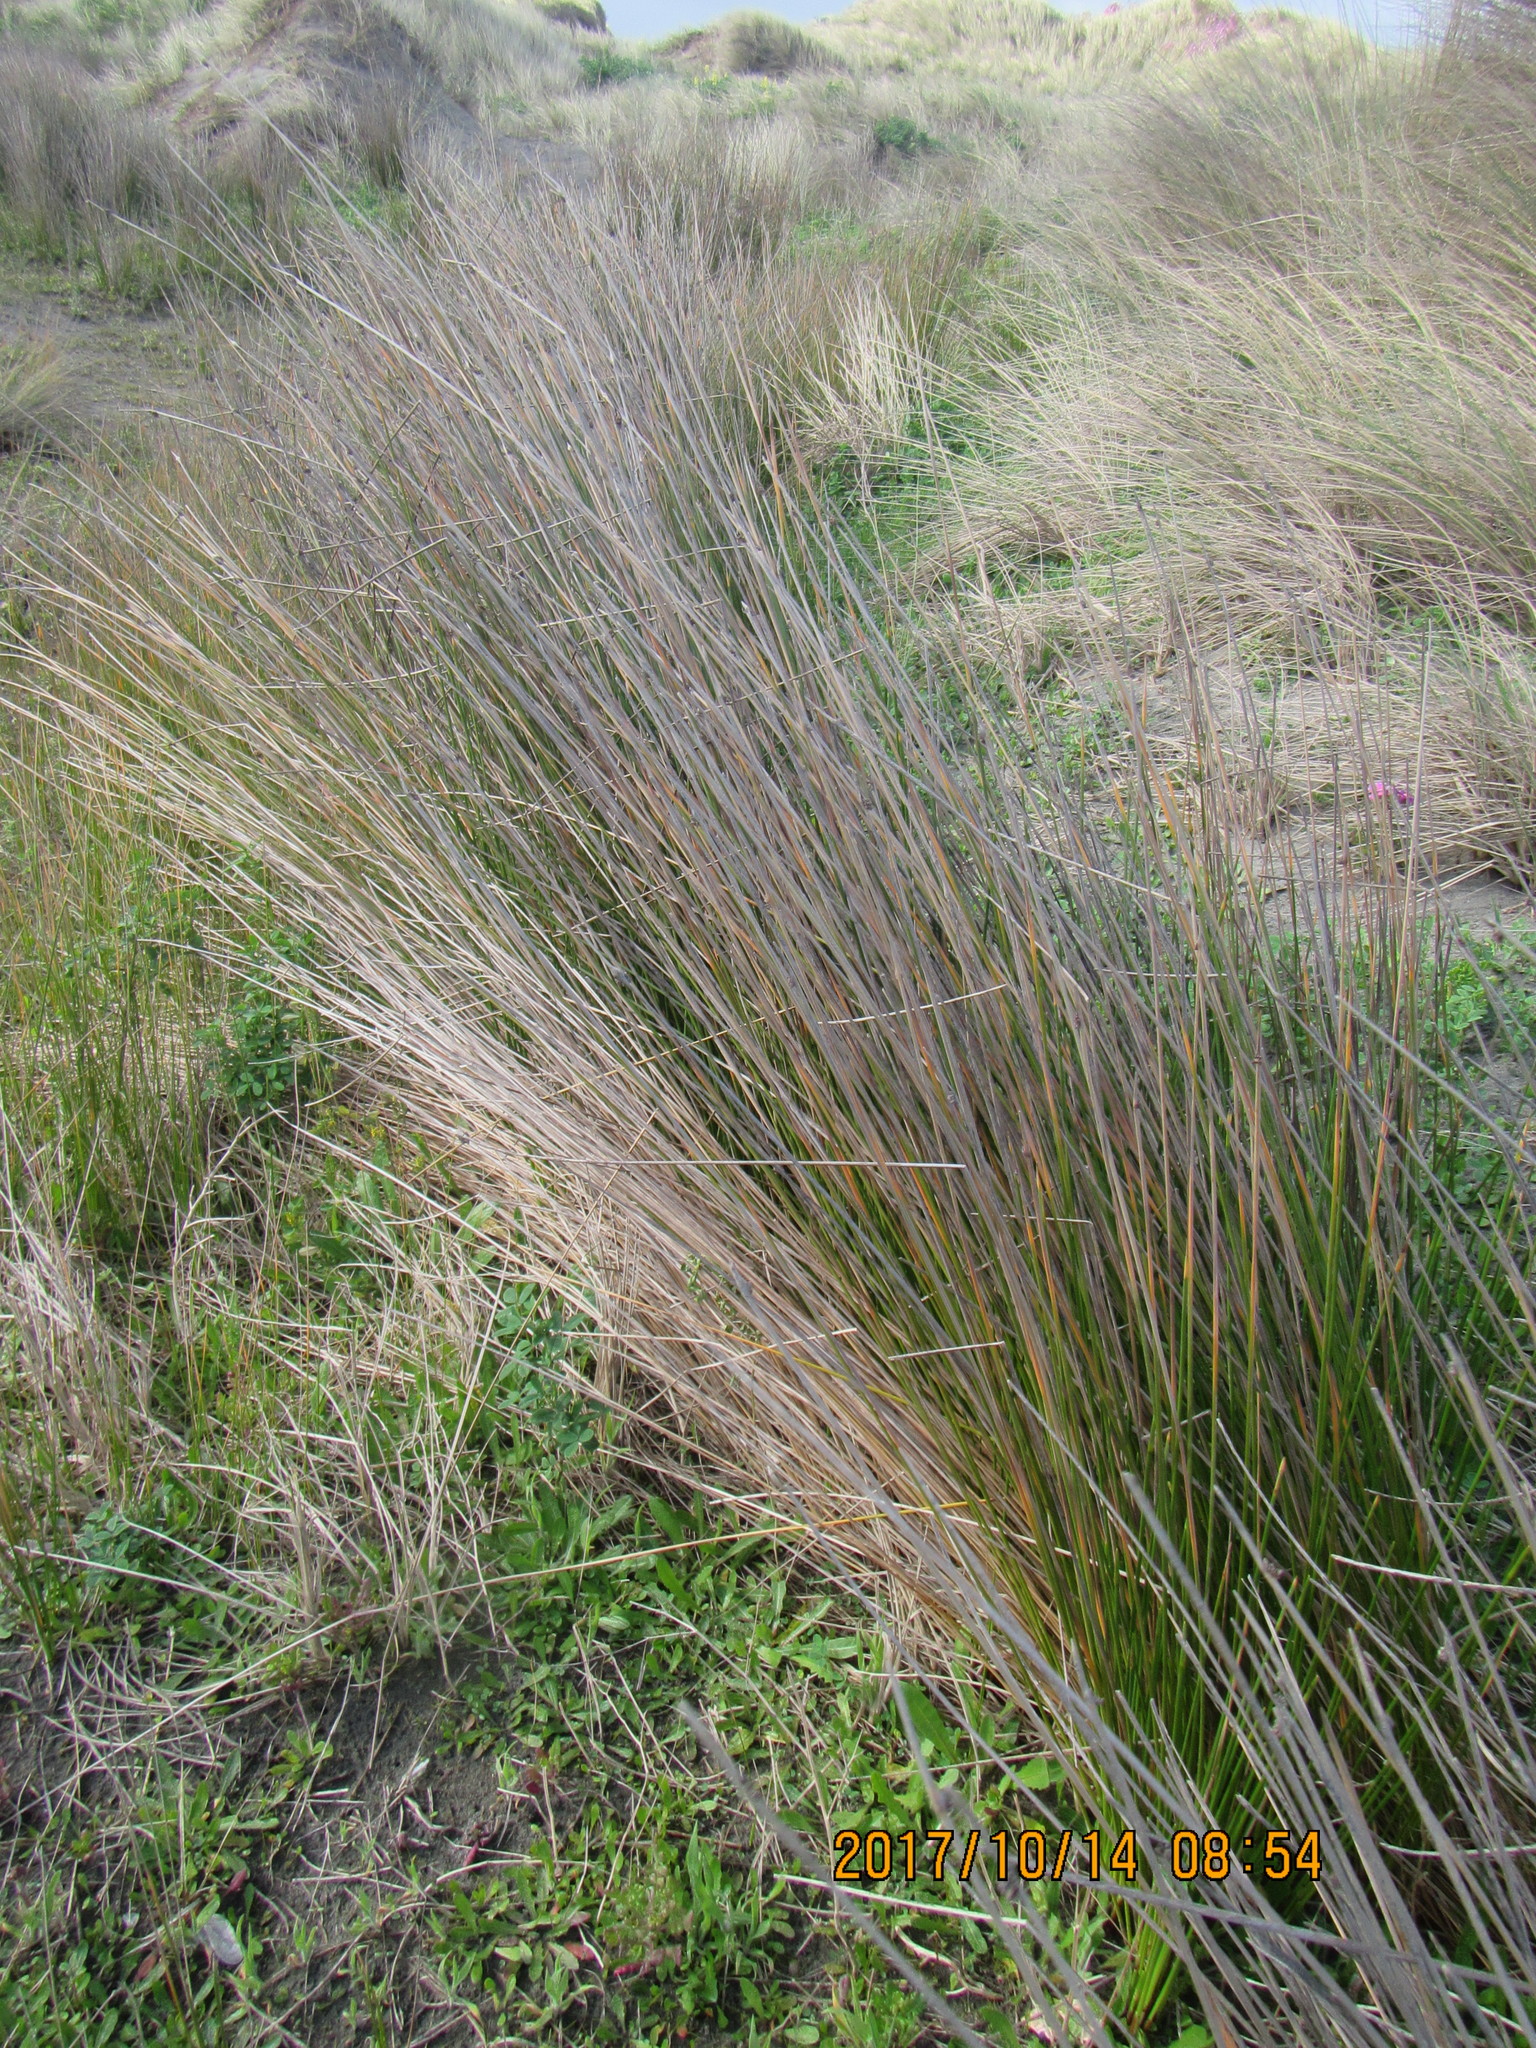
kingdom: Plantae
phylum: Tracheophyta
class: Liliopsida
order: Poales
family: Cyperaceae
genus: Ficinia
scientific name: Ficinia nodosa
